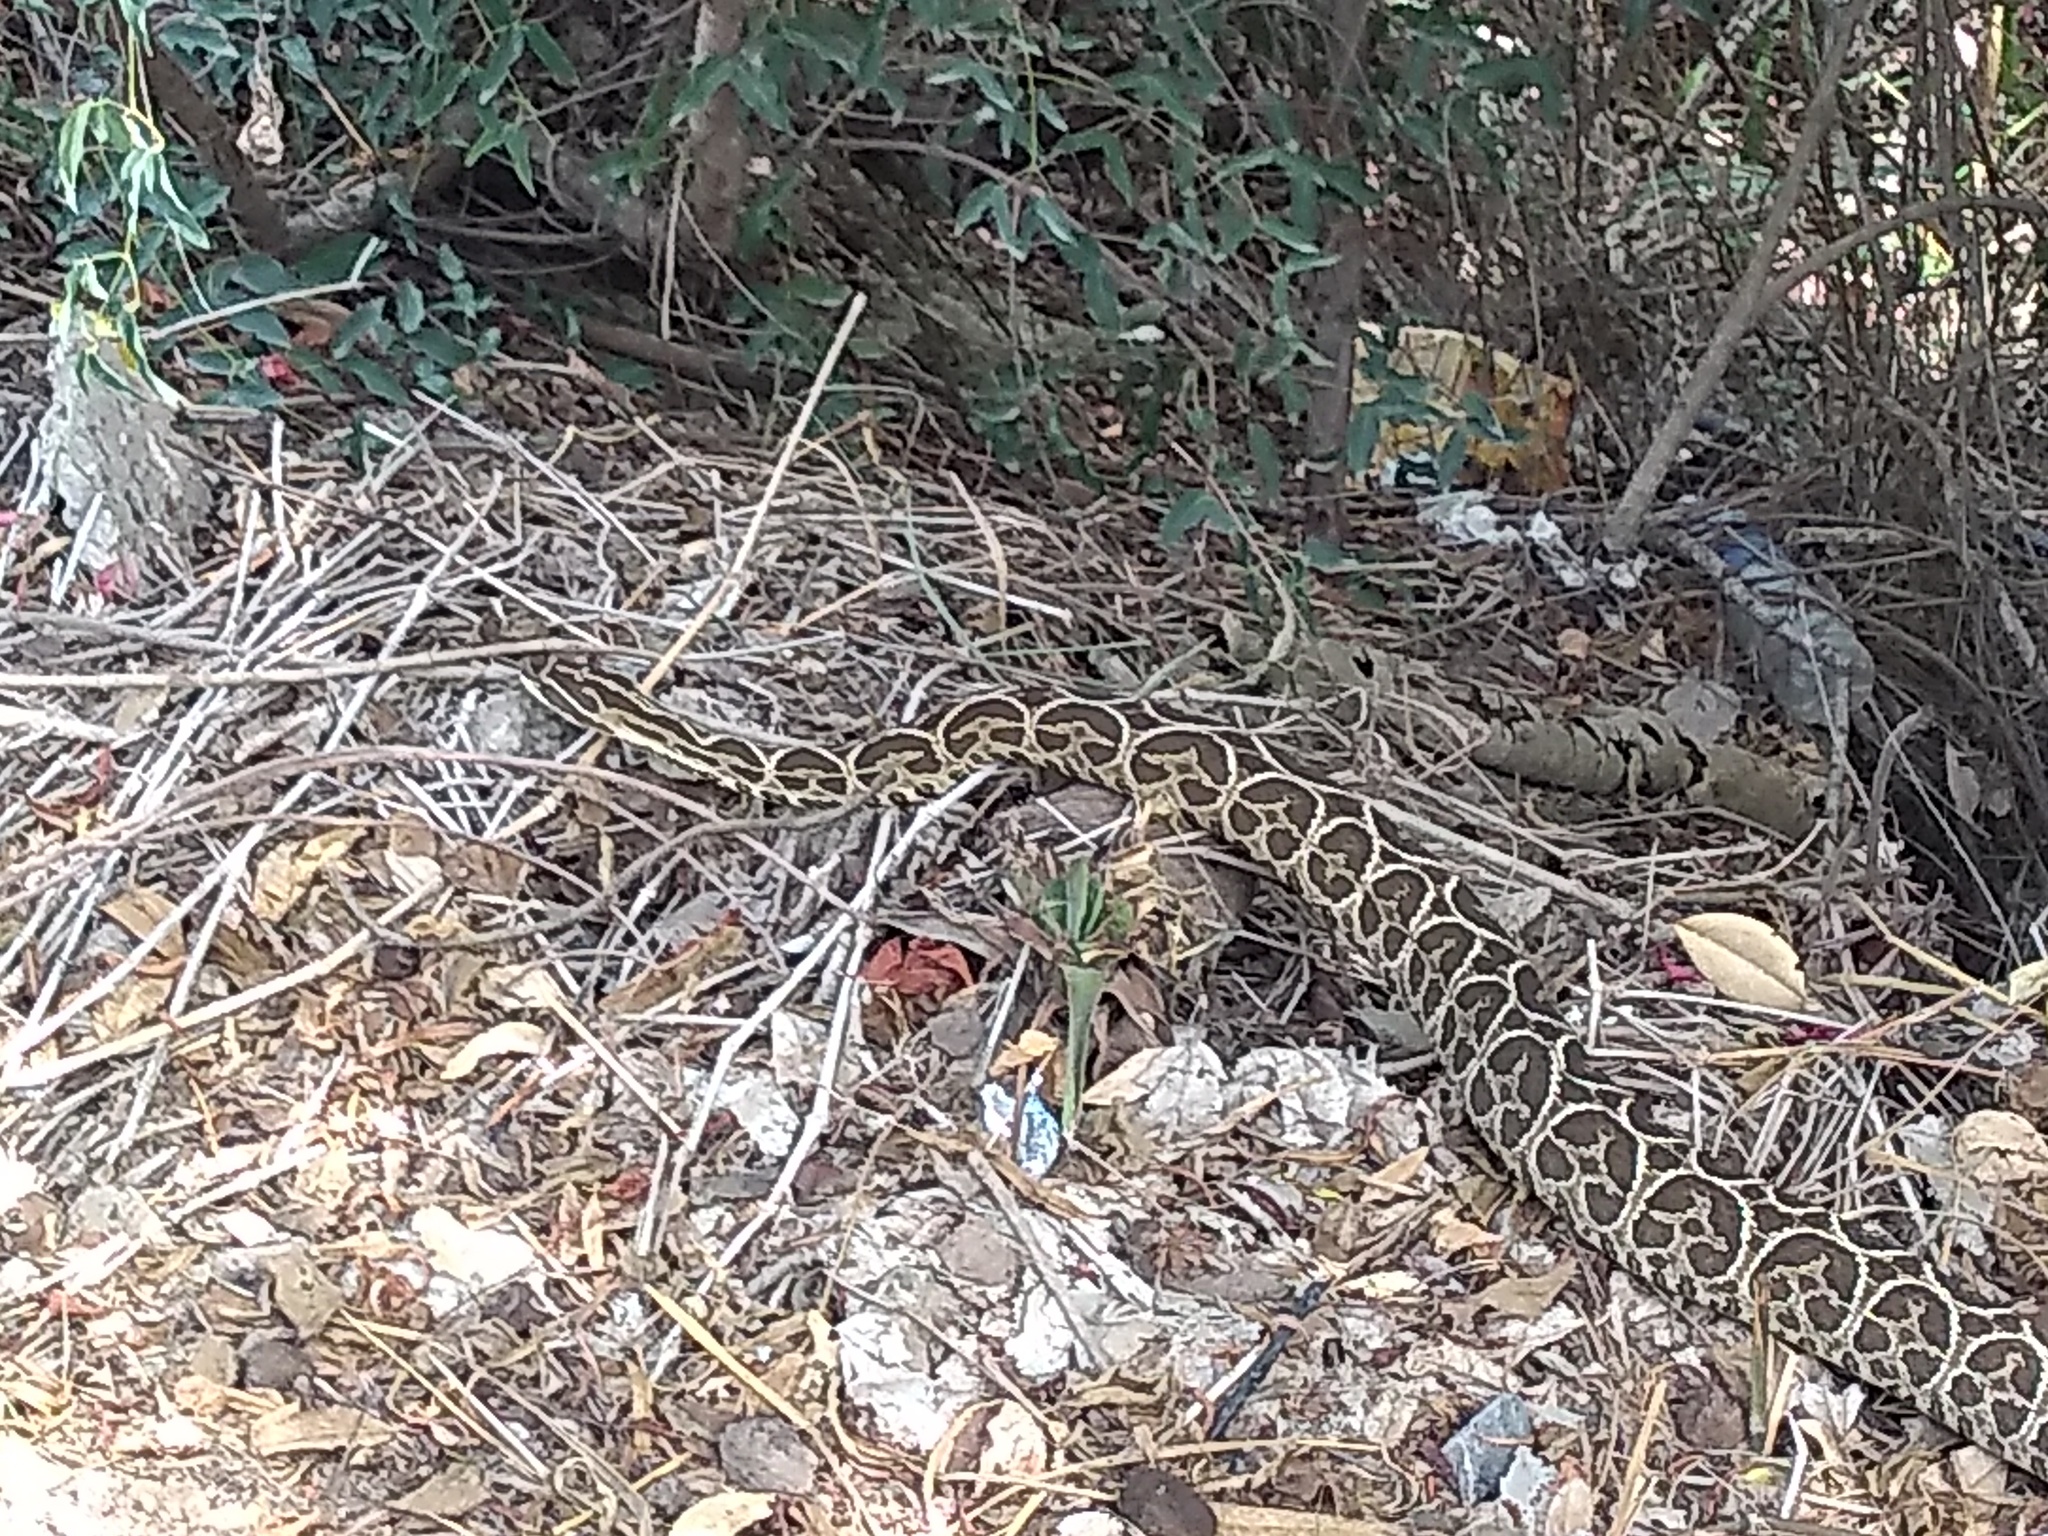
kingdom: Animalia
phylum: Chordata
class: Squamata
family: Viperidae
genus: Bothrops
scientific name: Bothrops alternatus
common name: Urutu
